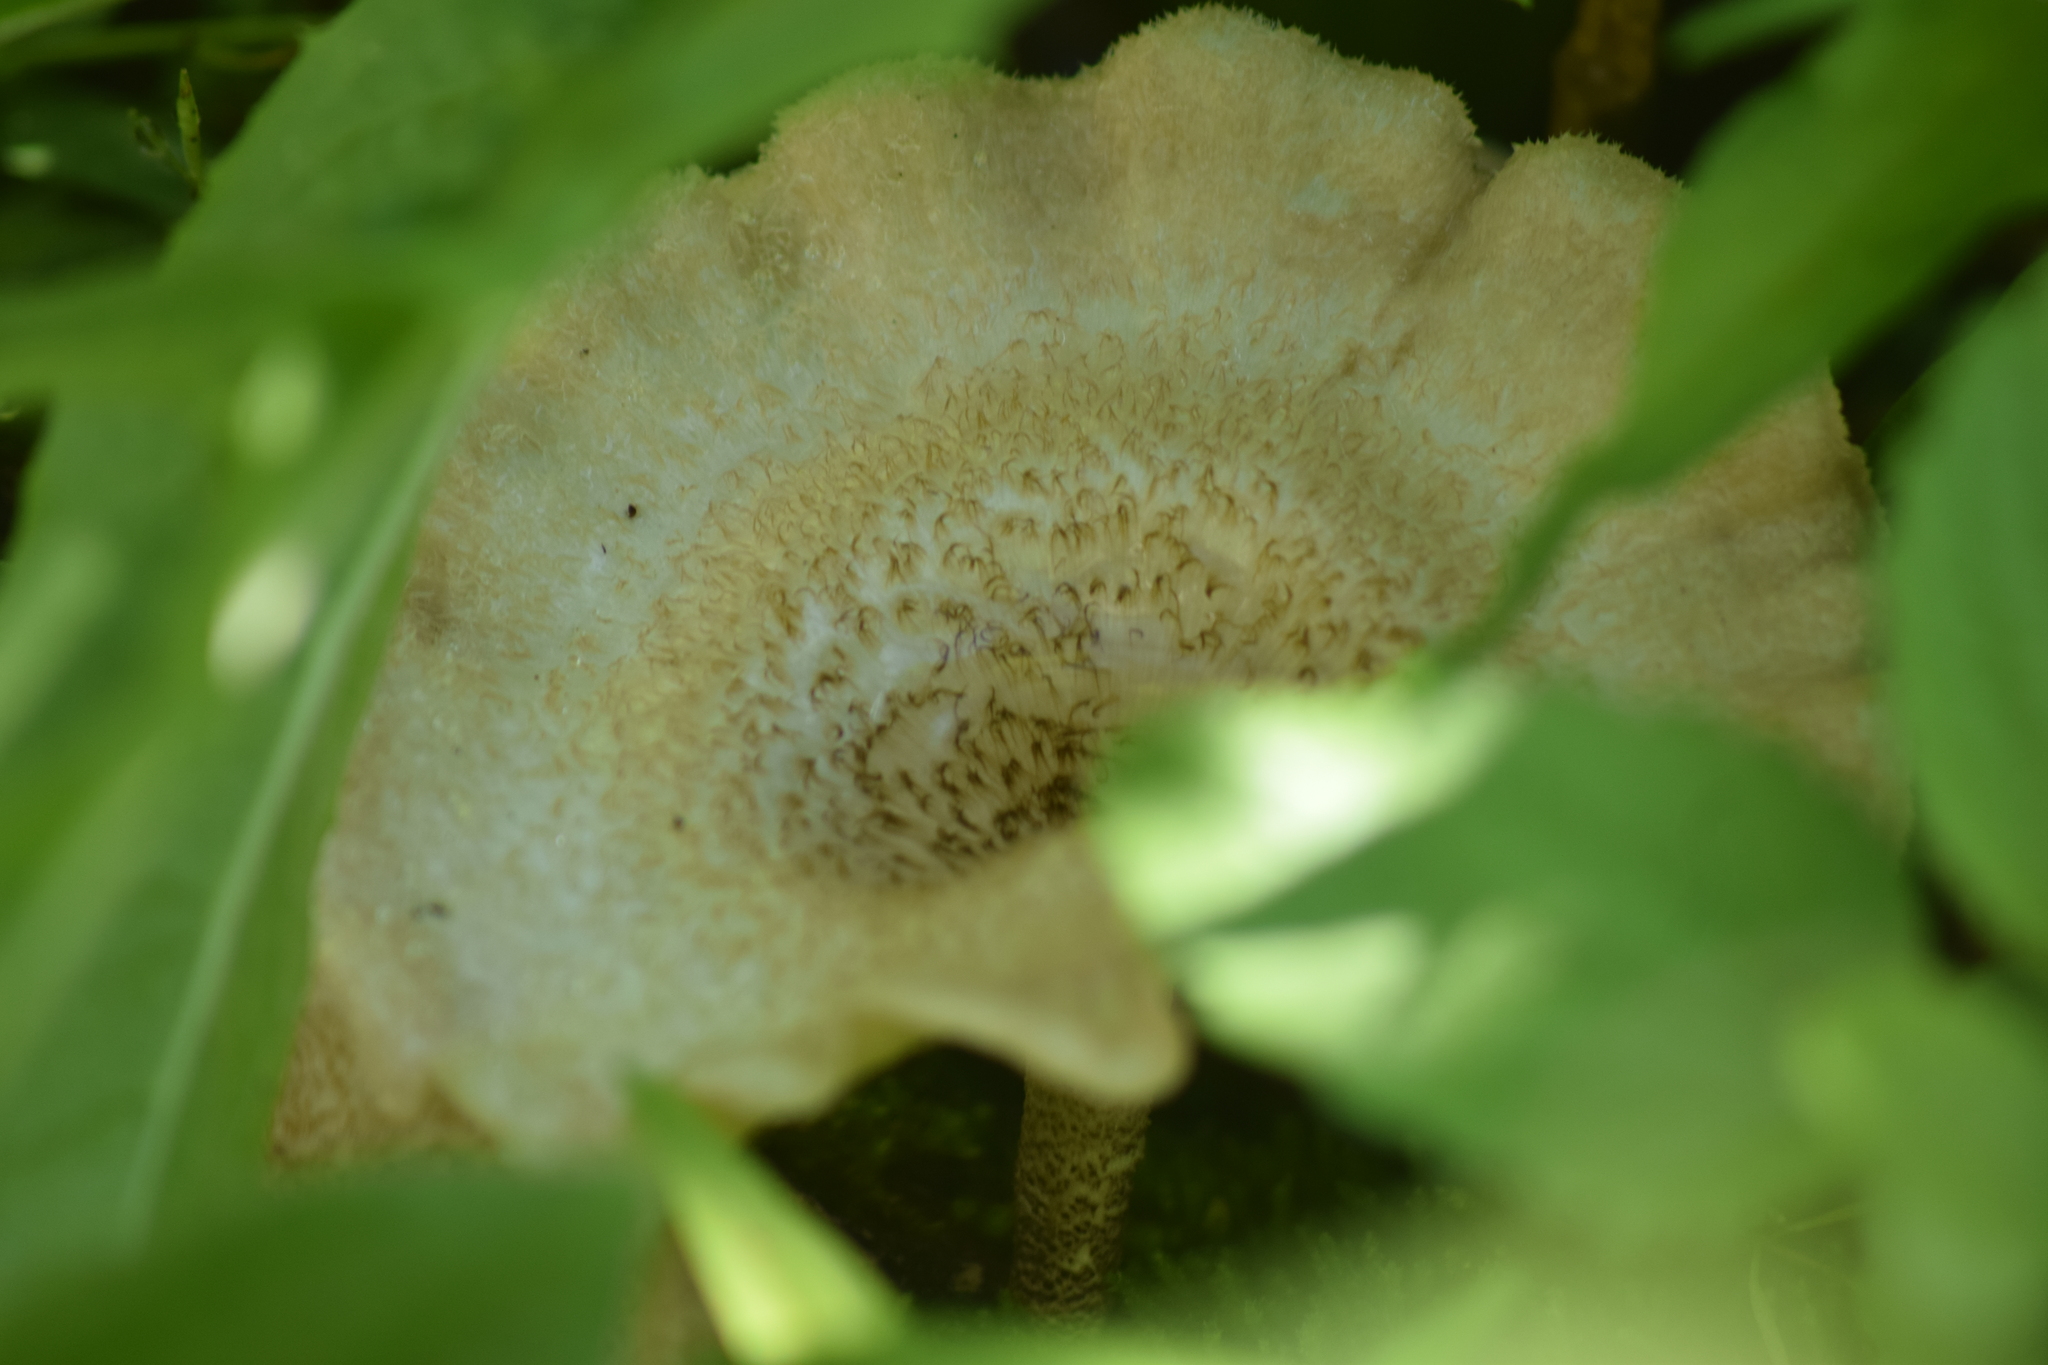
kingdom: Fungi
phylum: Basidiomycota
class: Agaricomycetes
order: Polyporales
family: Polyporaceae
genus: Lentinus
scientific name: Lentinus crinitus
